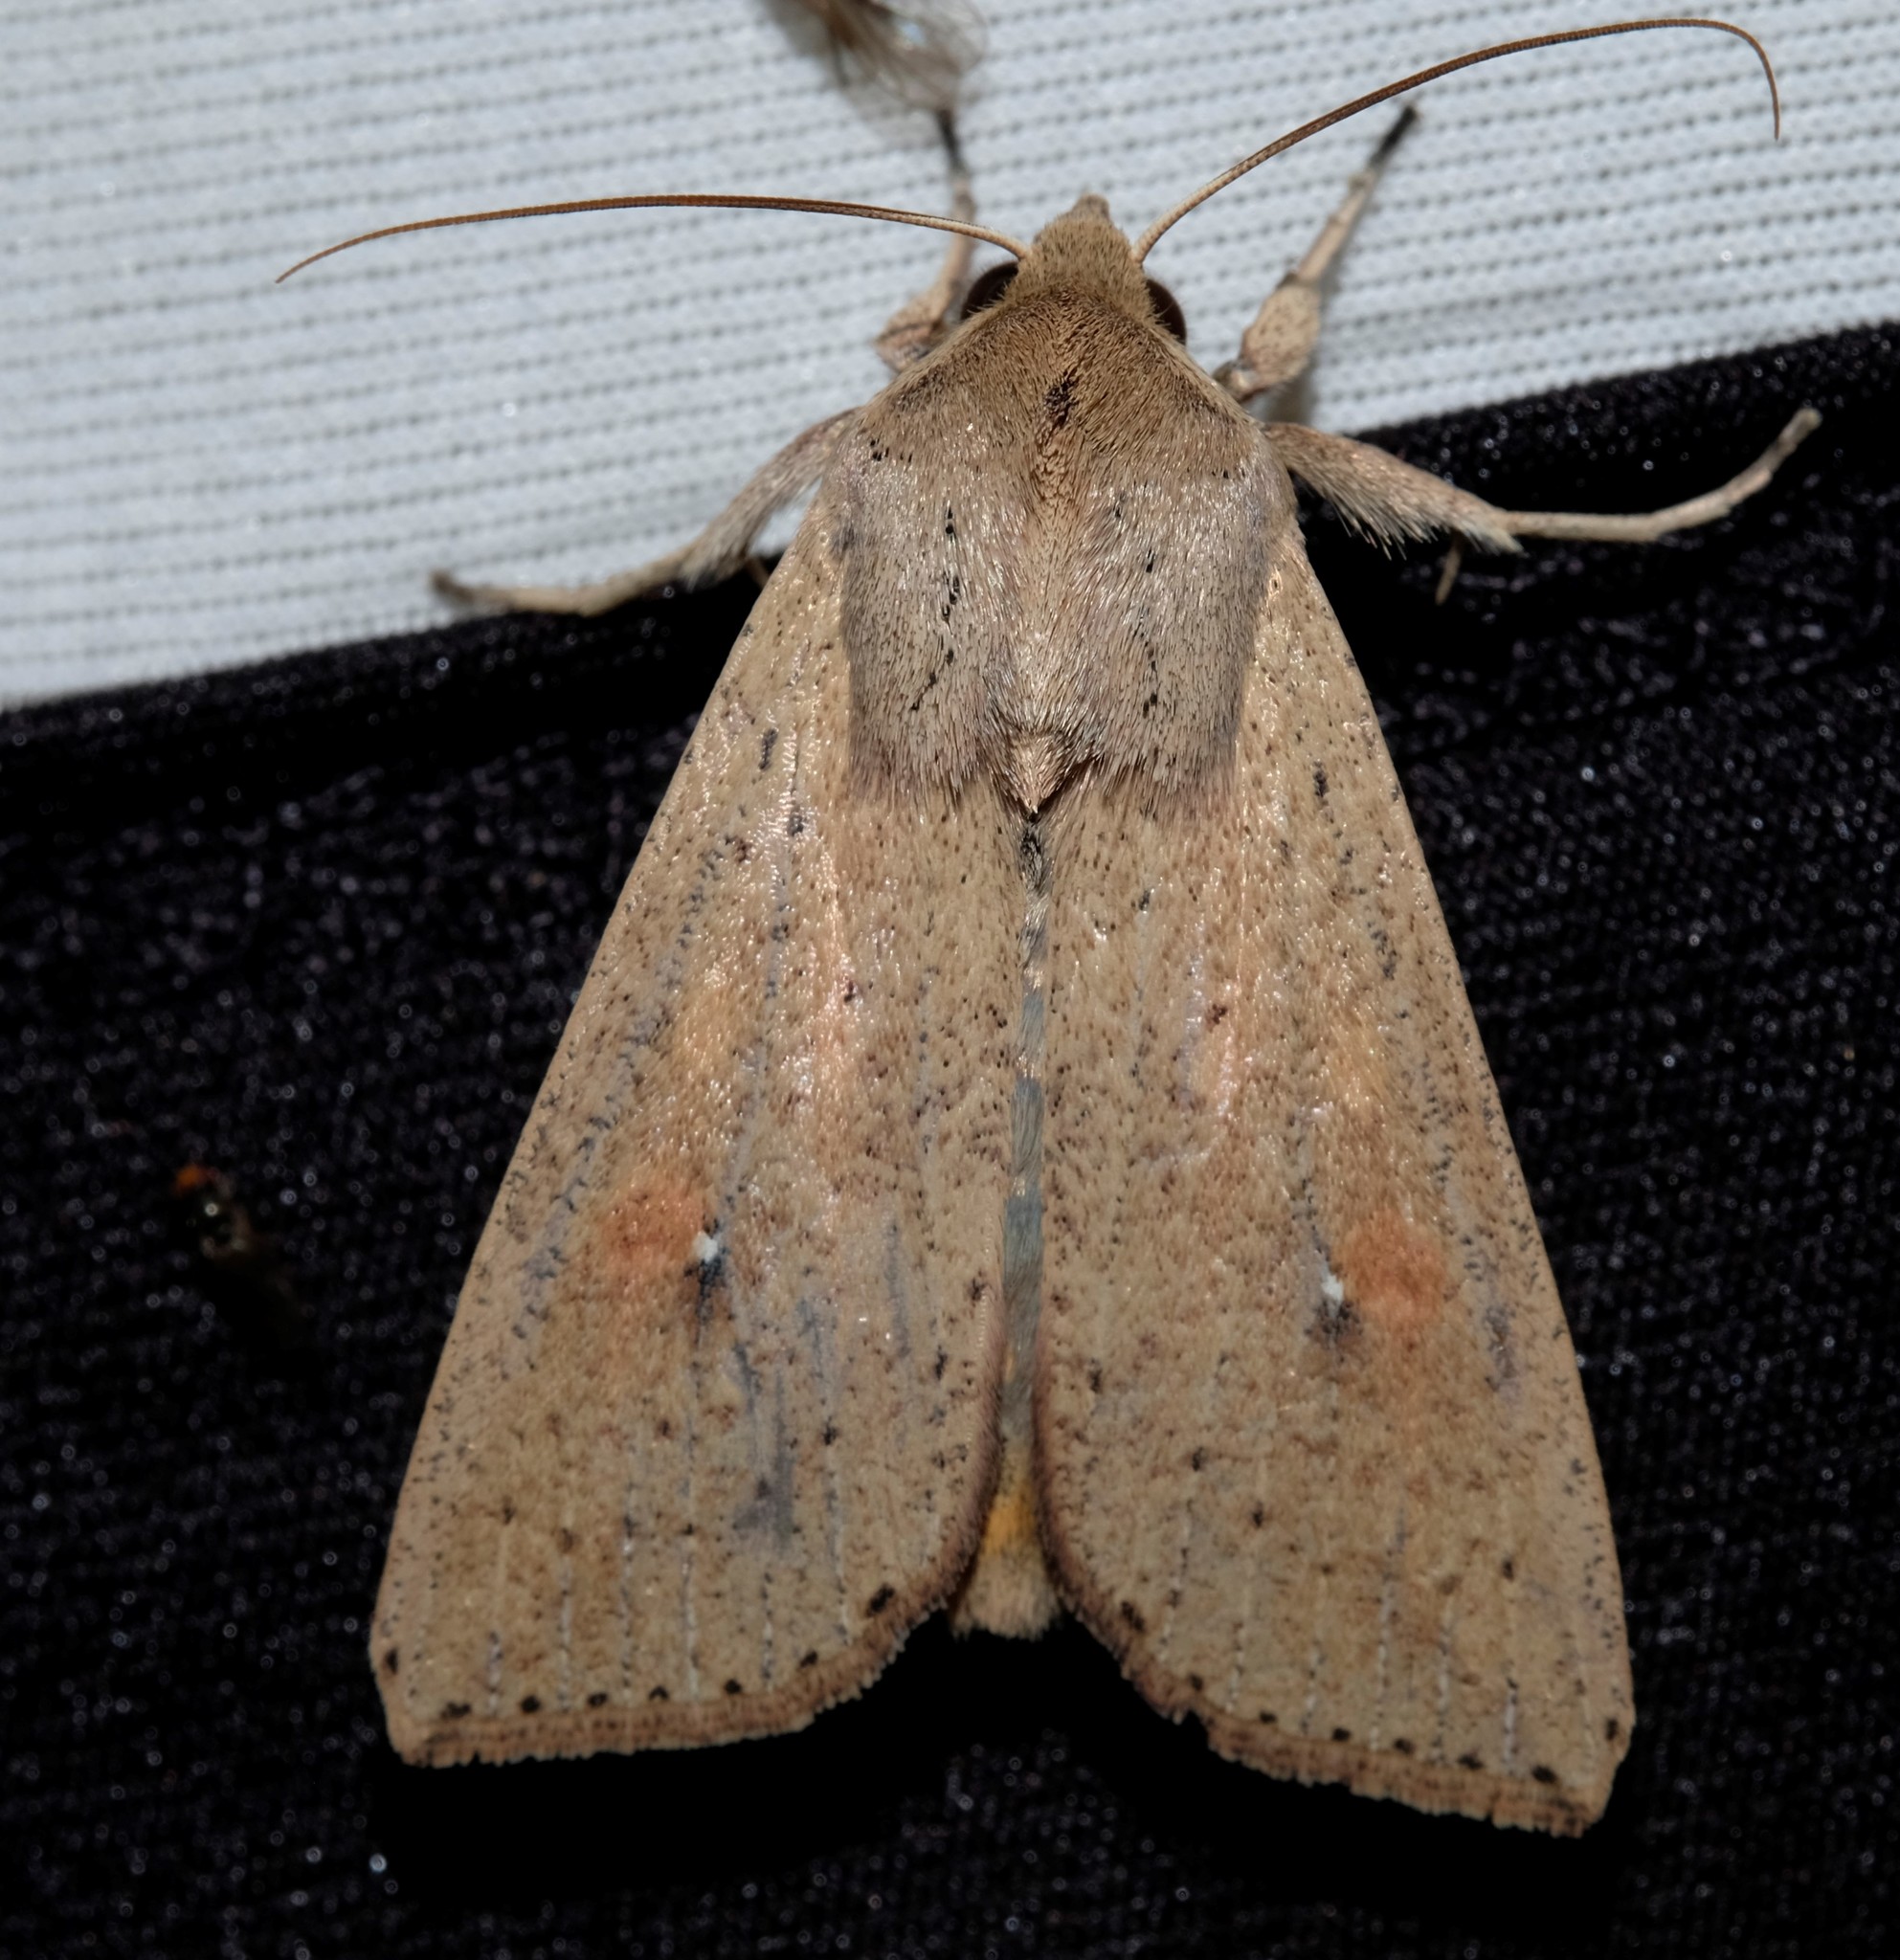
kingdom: Animalia
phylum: Arthropoda
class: Insecta
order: Lepidoptera
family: Noctuidae
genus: Mythimna
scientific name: Mythimna convecta
